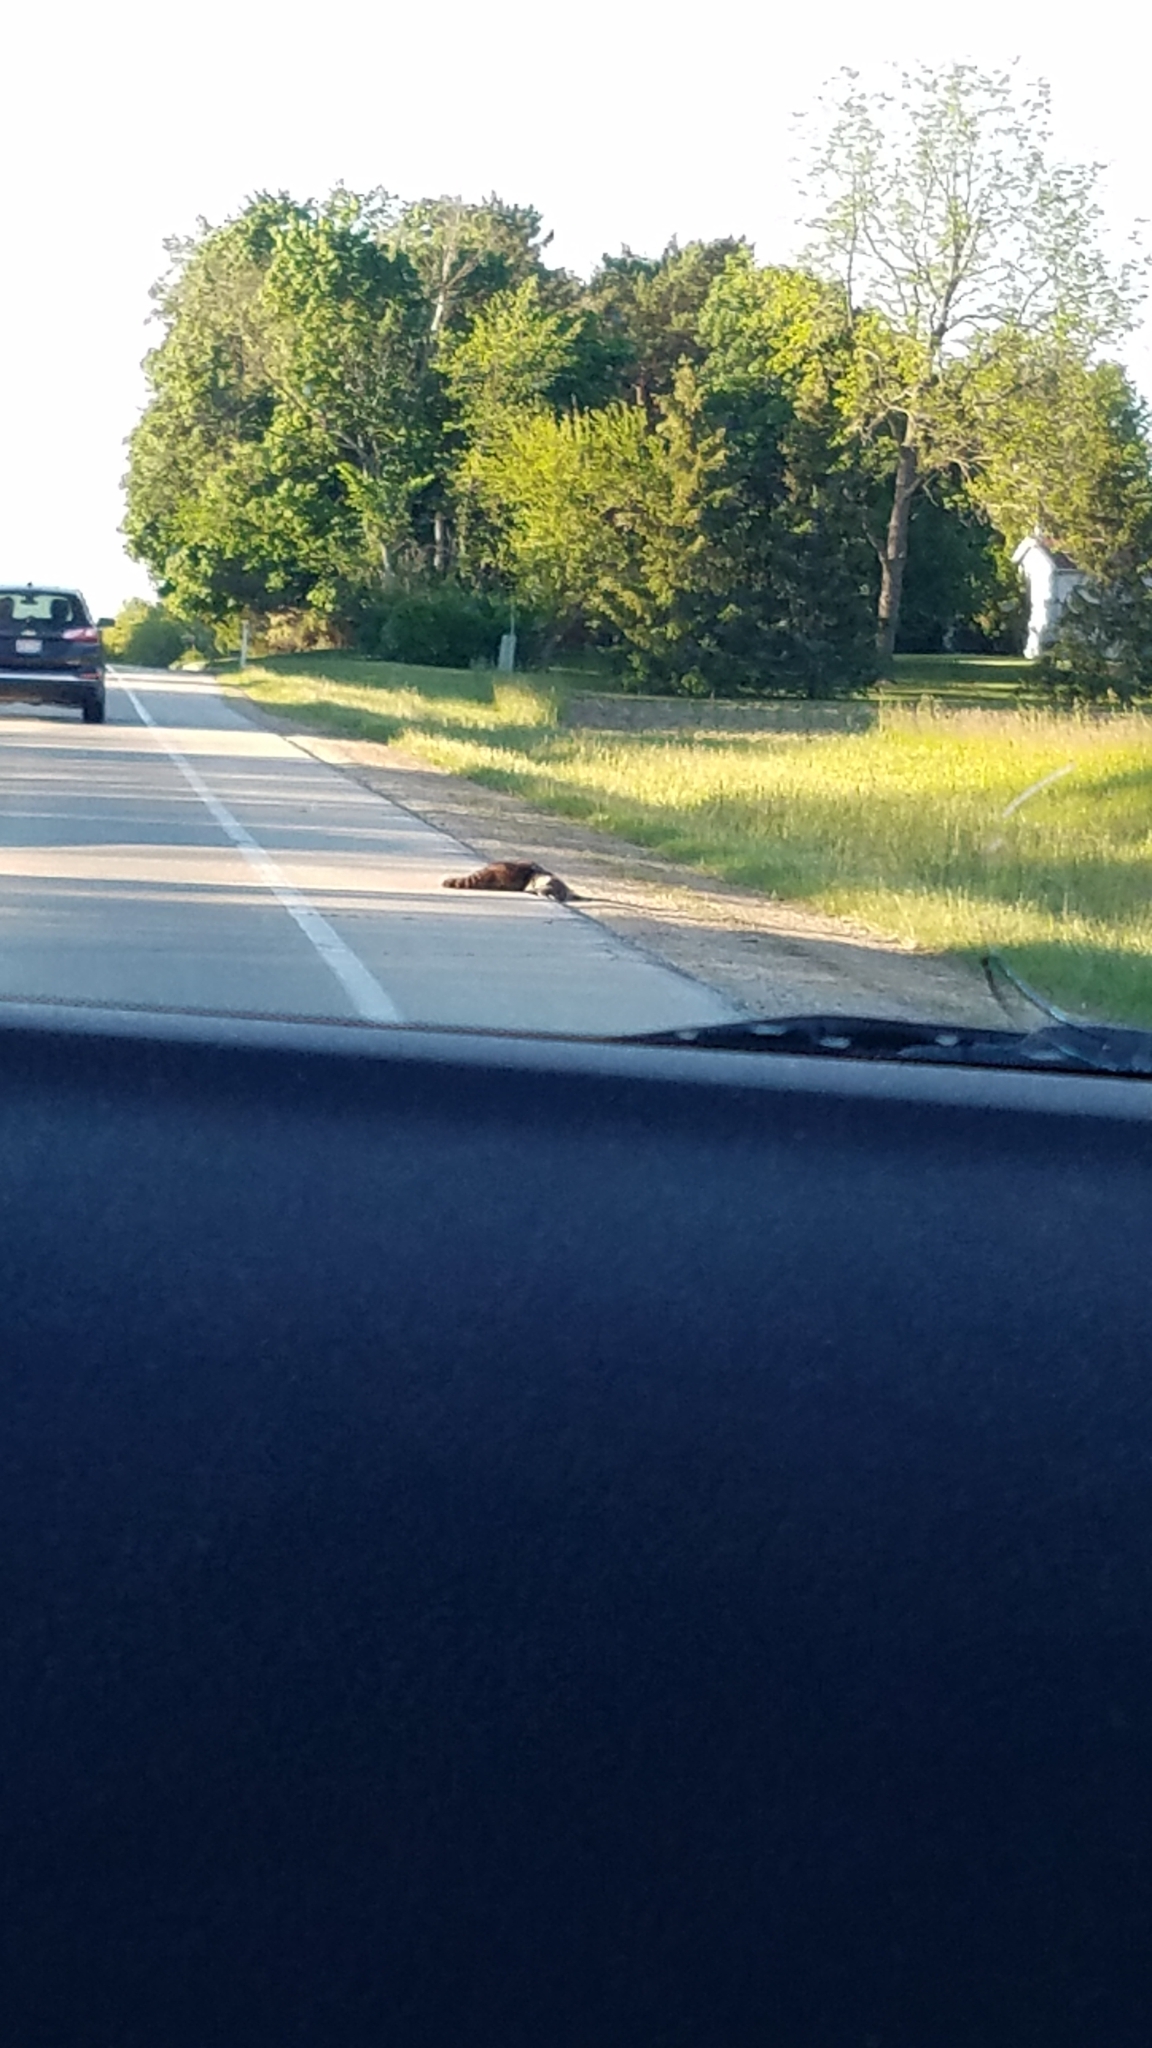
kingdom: Animalia
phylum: Chordata
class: Mammalia
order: Carnivora
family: Procyonidae
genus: Procyon
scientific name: Procyon lotor
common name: Raccoon
